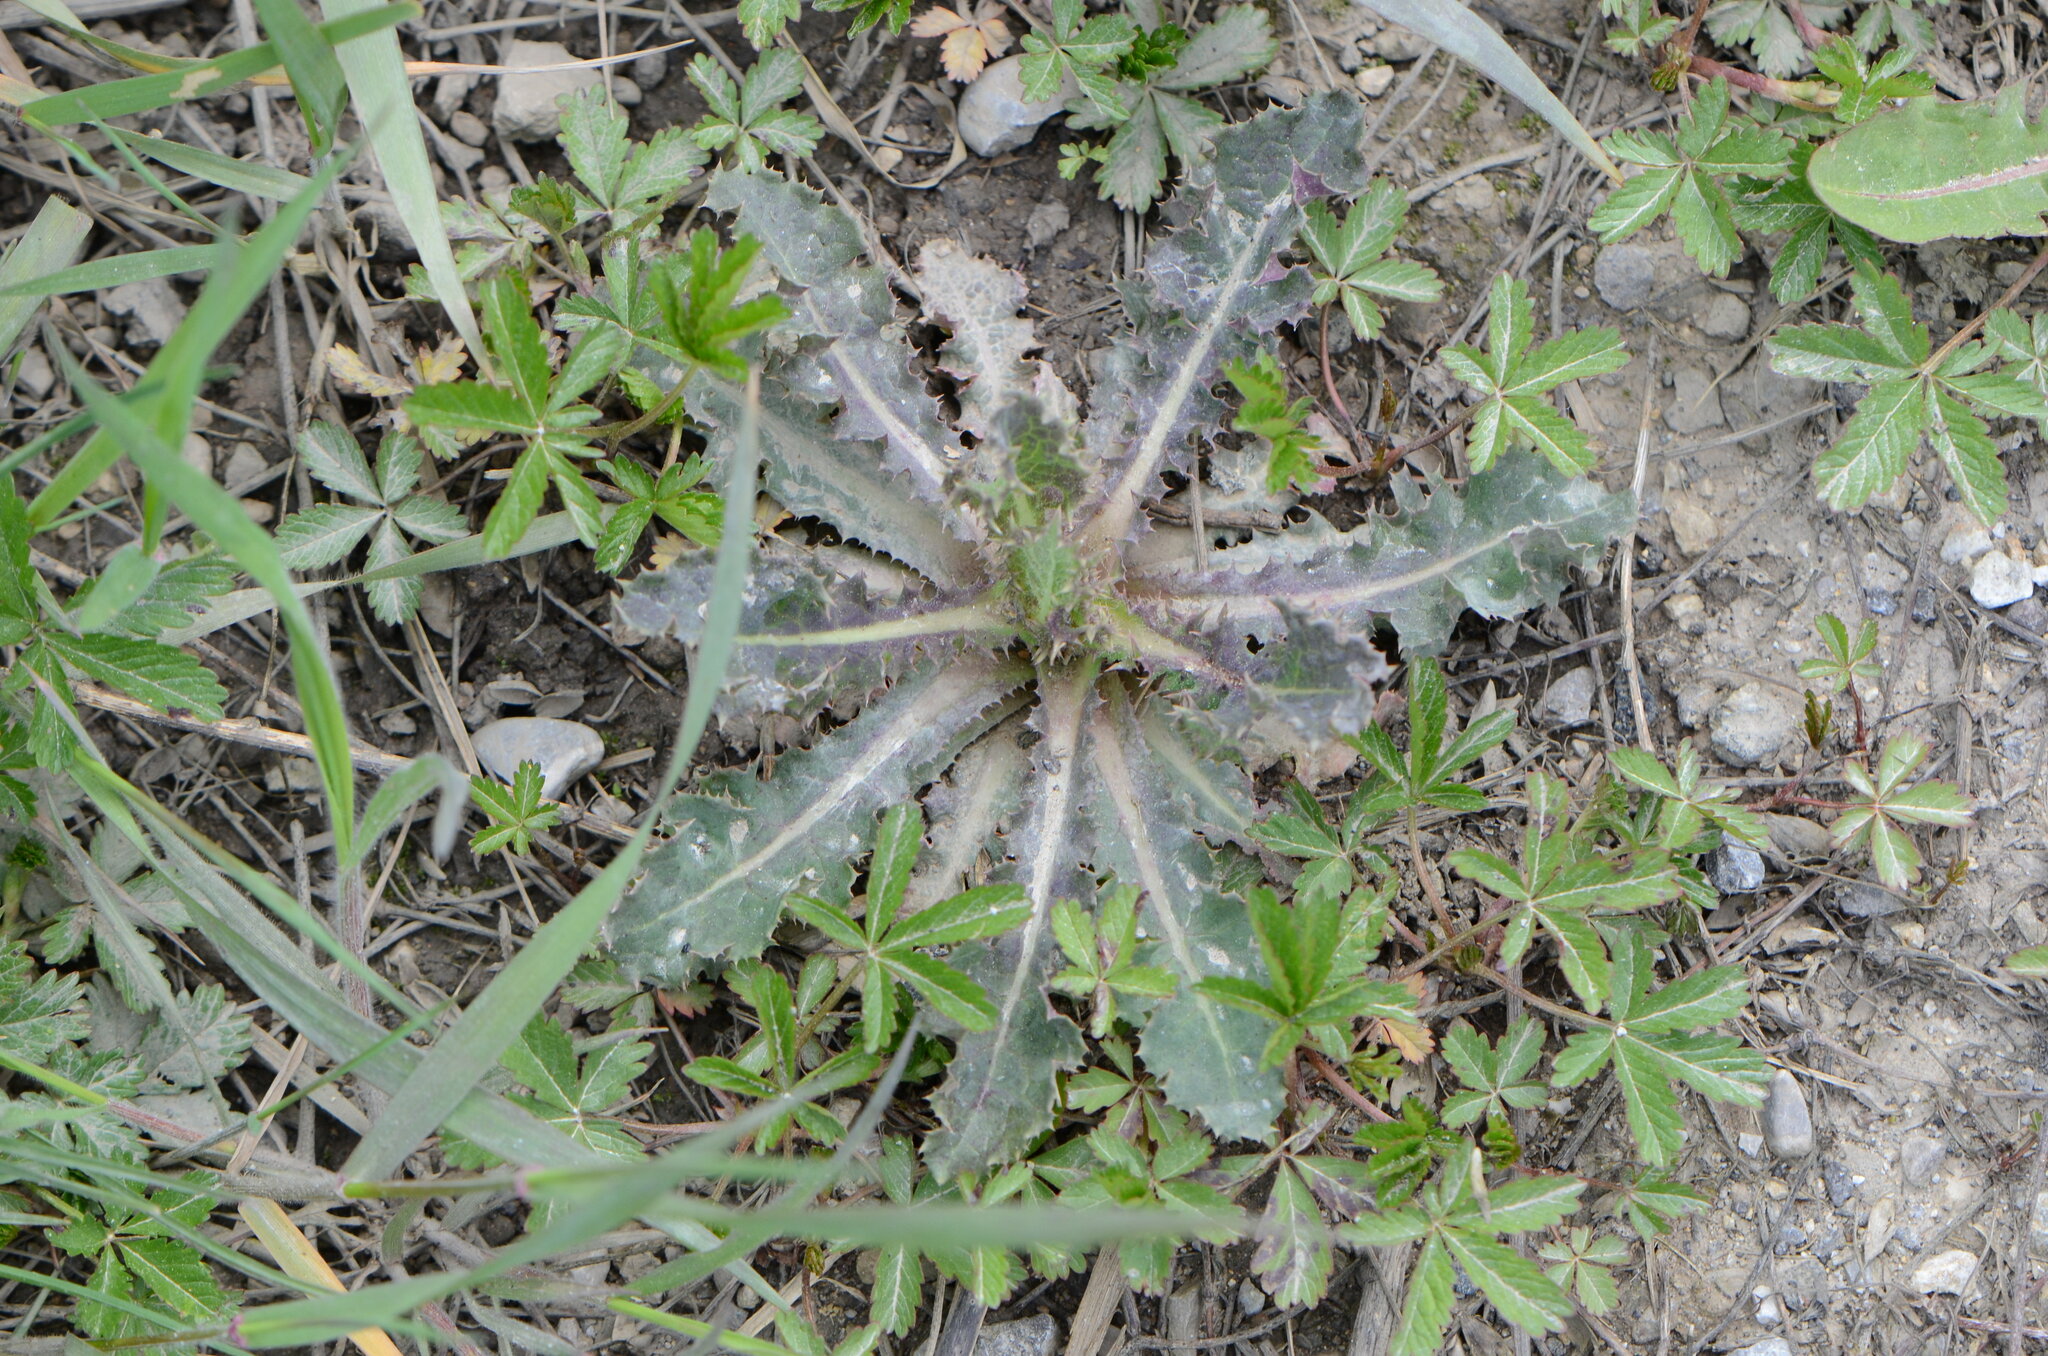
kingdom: Plantae
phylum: Tracheophyta
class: Magnoliopsida
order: Asterales
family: Asteraceae
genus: Sonchus
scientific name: Sonchus asper
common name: Prickly sow-thistle
